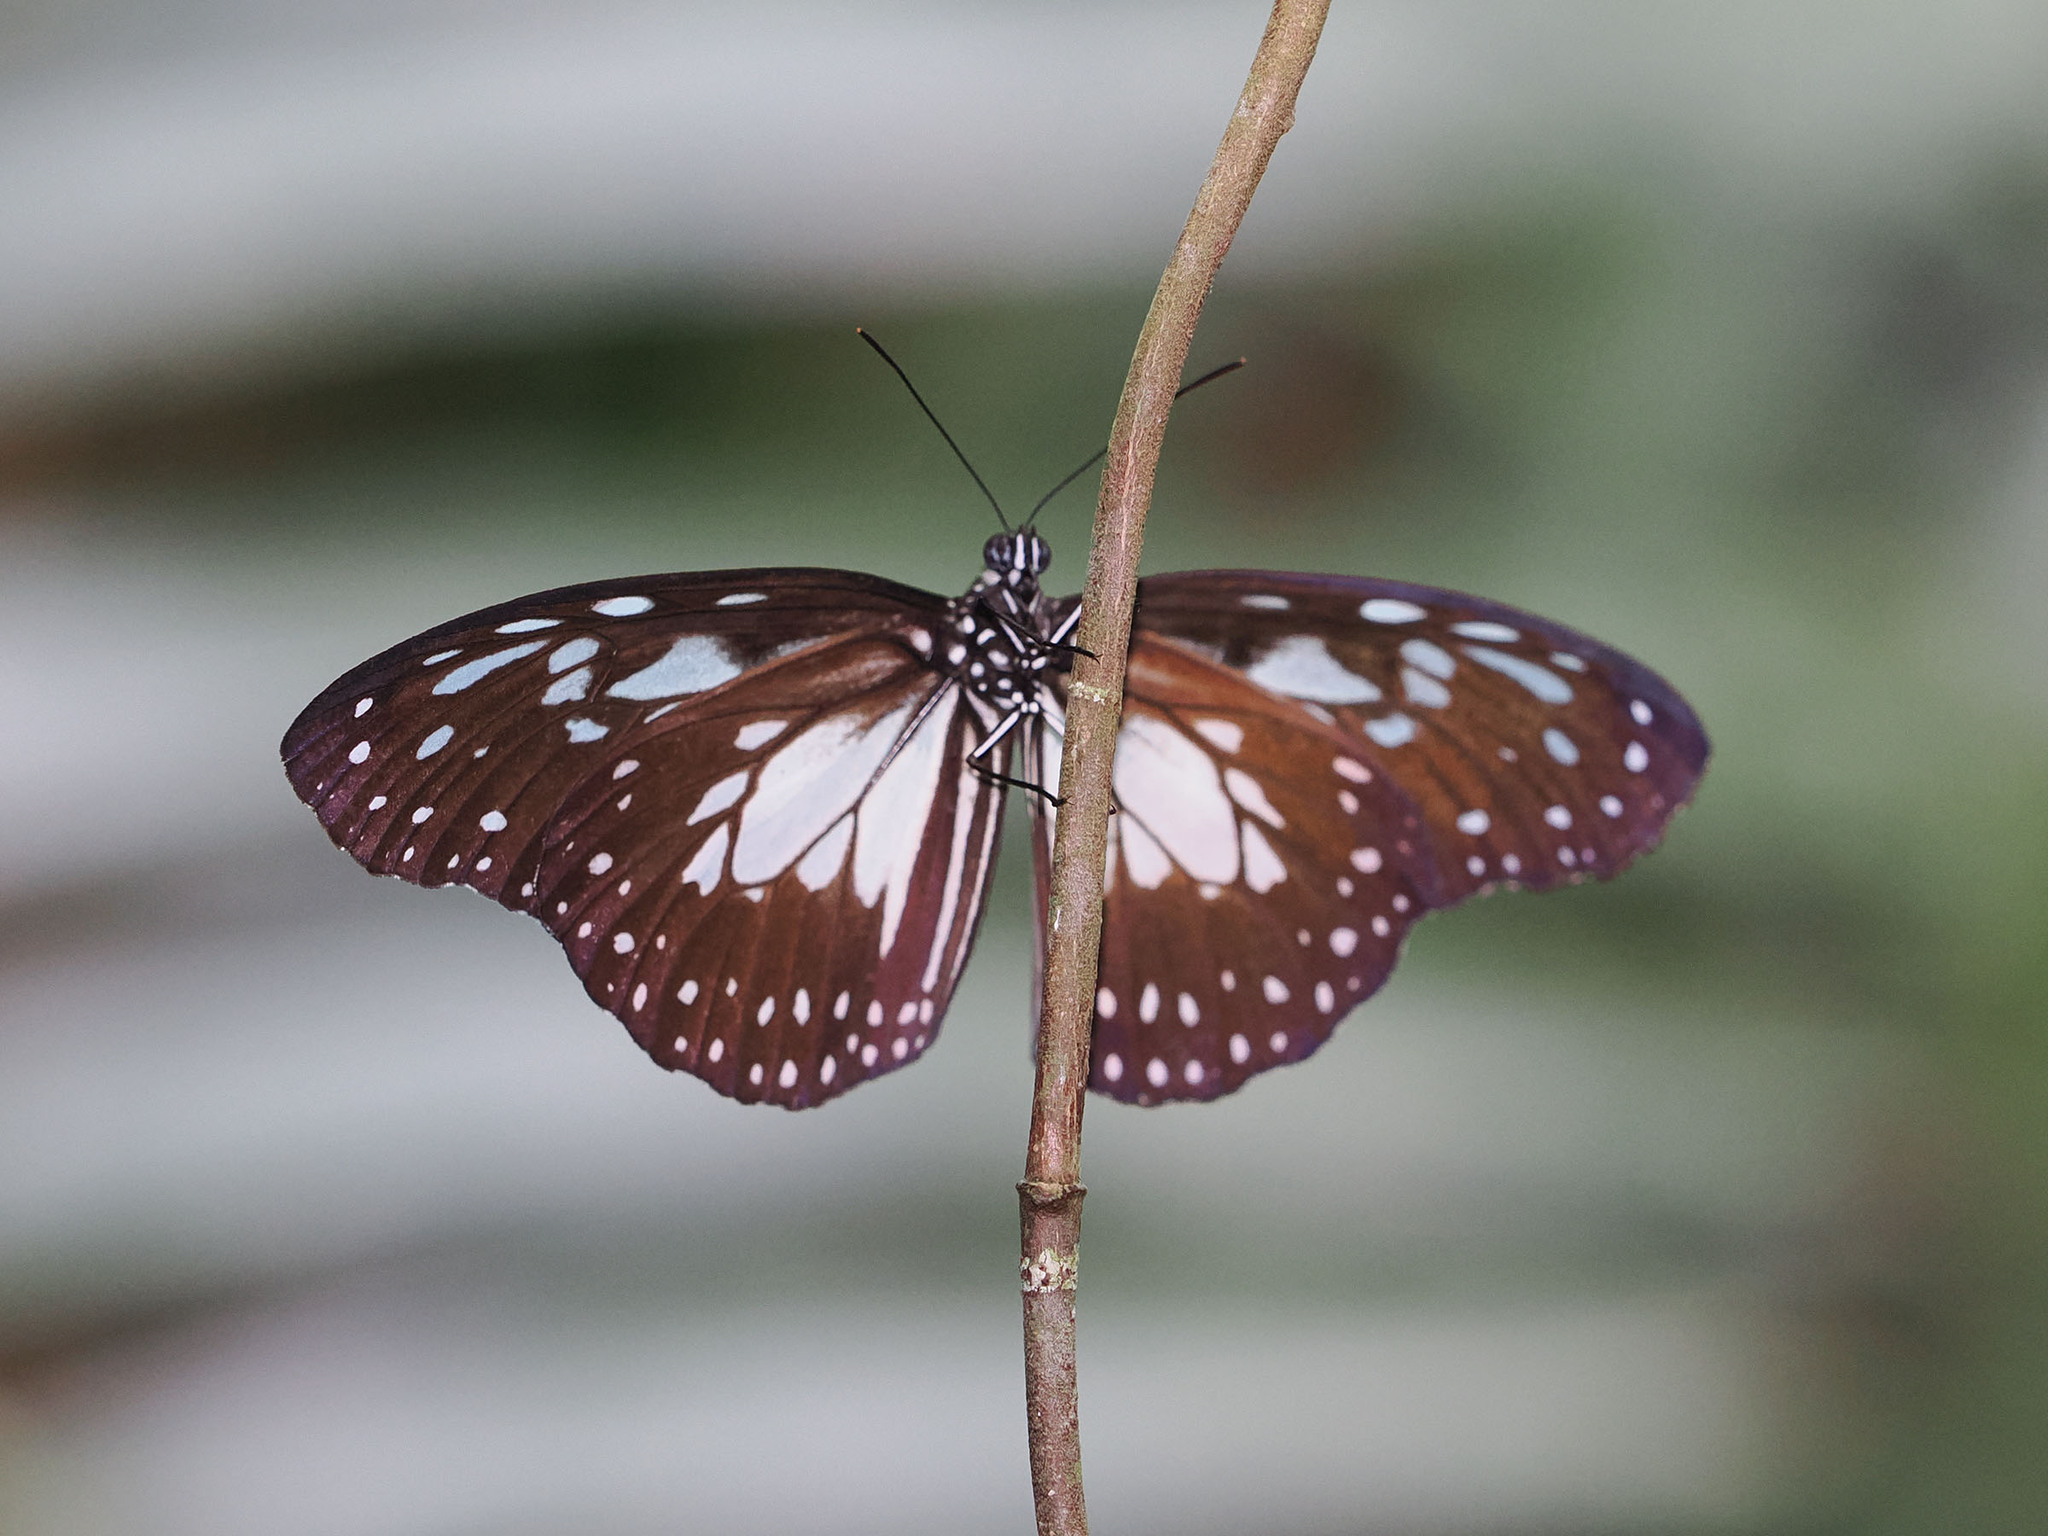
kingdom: Animalia
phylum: Arthropoda
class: Insecta
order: Lepidoptera
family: Nymphalidae
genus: Ideopsis
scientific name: Ideopsis juventa
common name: Grey glassy tiger
